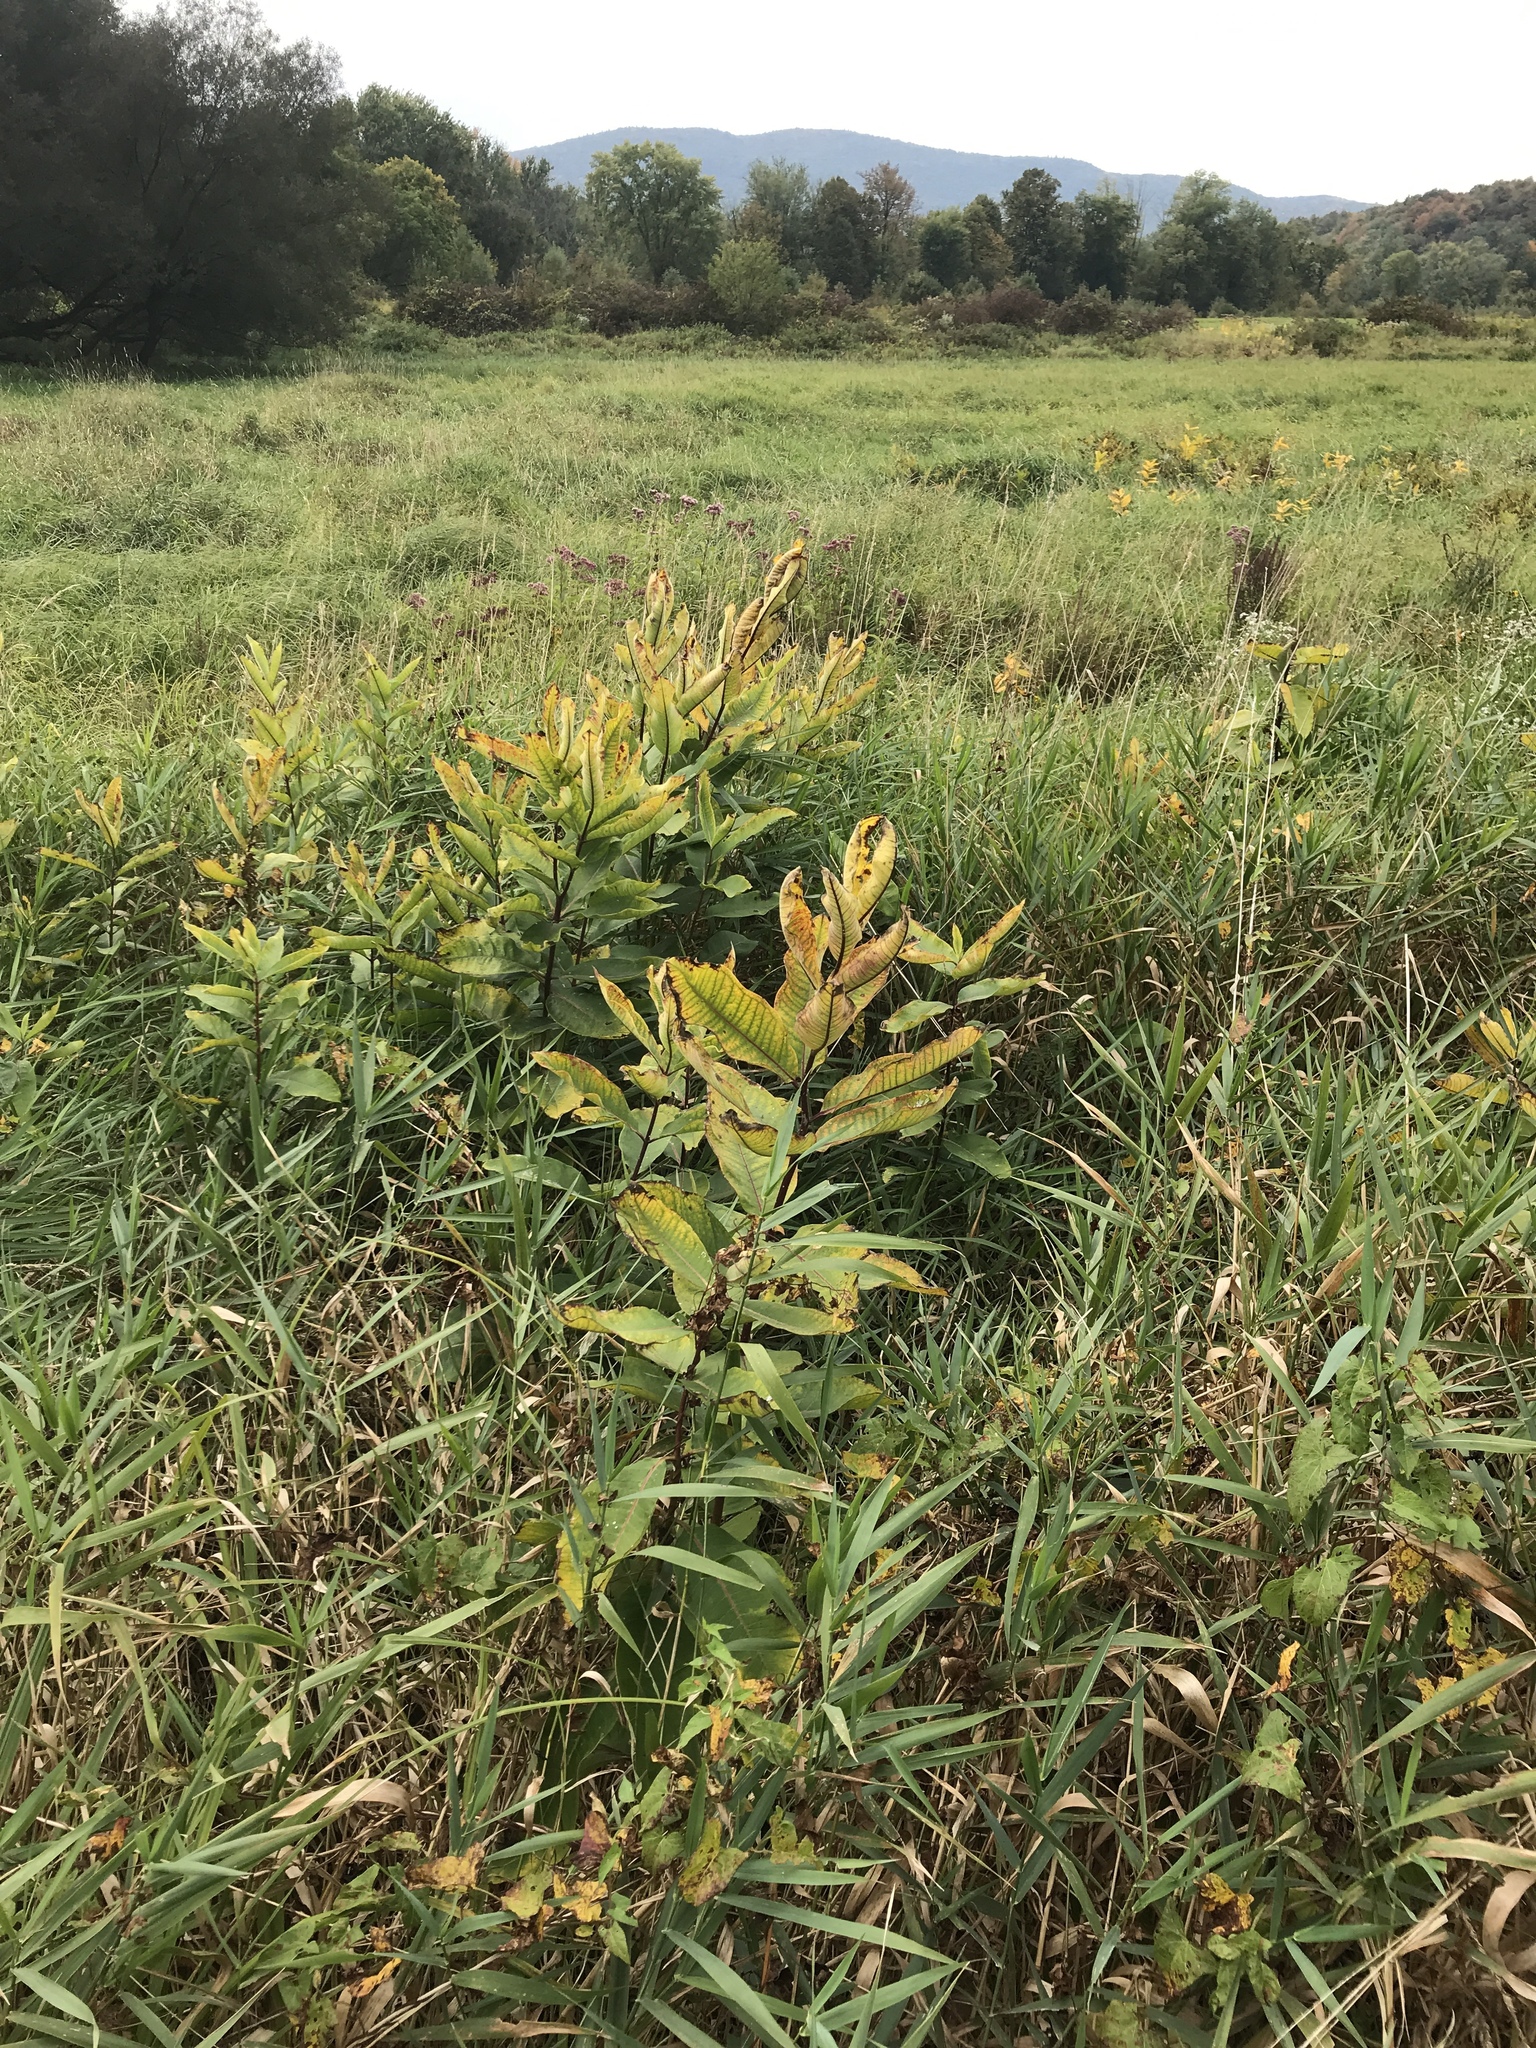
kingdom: Plantae
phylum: Tracheophyta
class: Magnoliopsida
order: Gentianales
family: Apocynaceae
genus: Asclepias
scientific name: Asclepias syriaca
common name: Common milkweed
